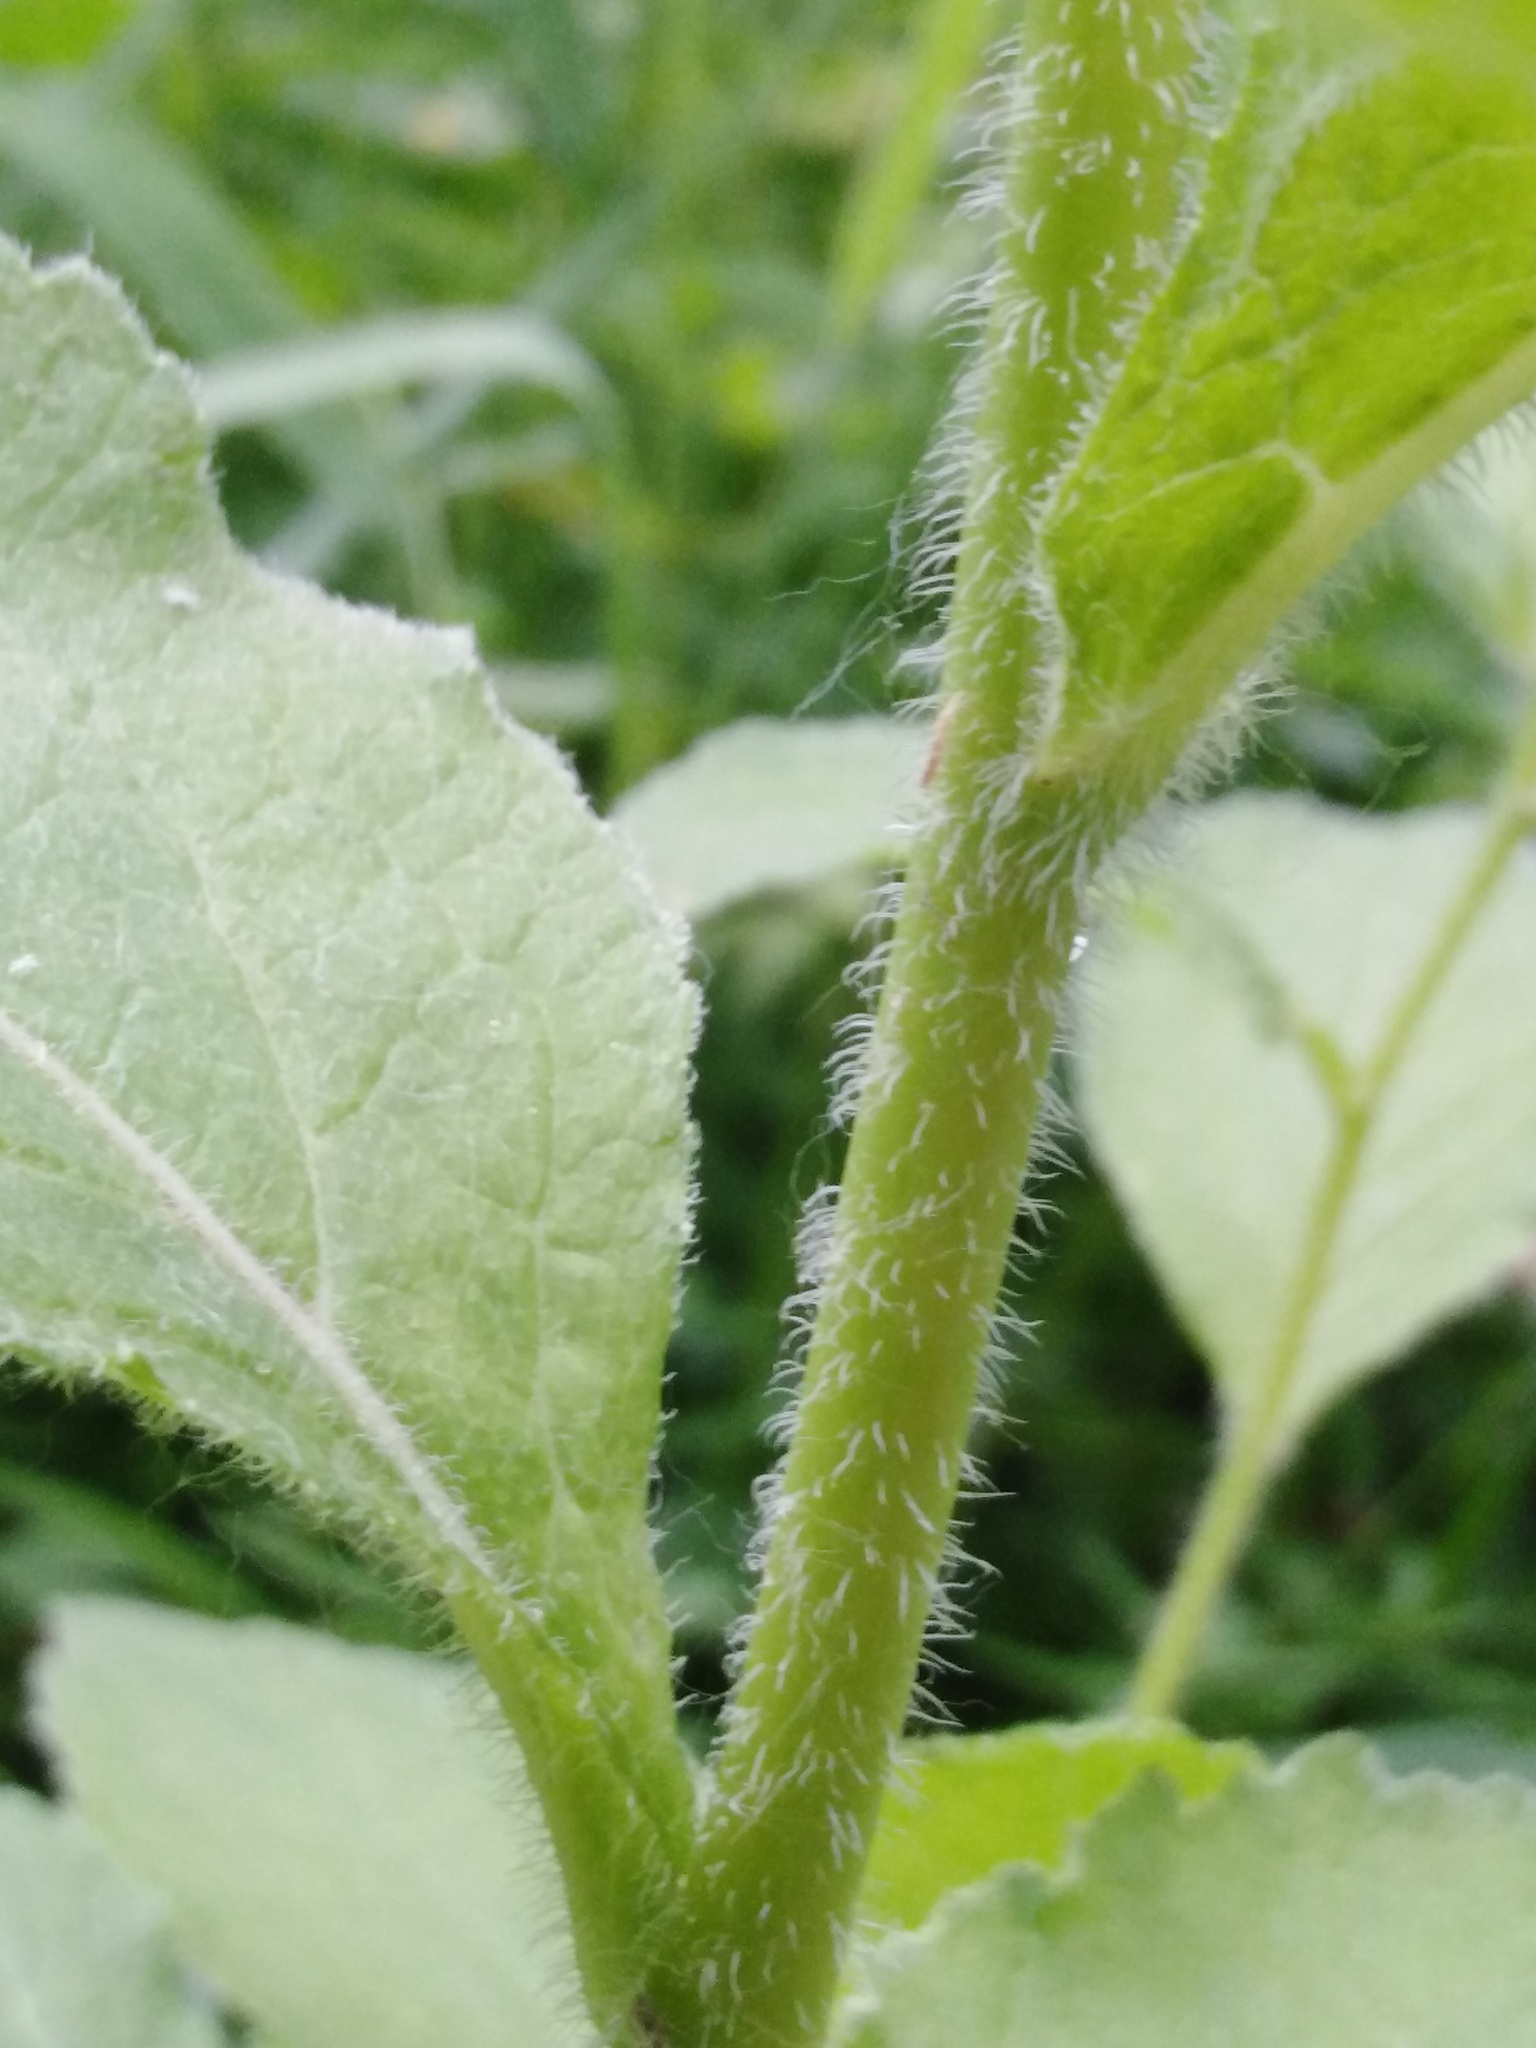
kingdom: Plantae
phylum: Tracheophyta
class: Magnoliopsida
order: Asterales
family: Campanulaceae
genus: Campanula
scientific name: Campanula latifolia
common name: Giant bellflower
